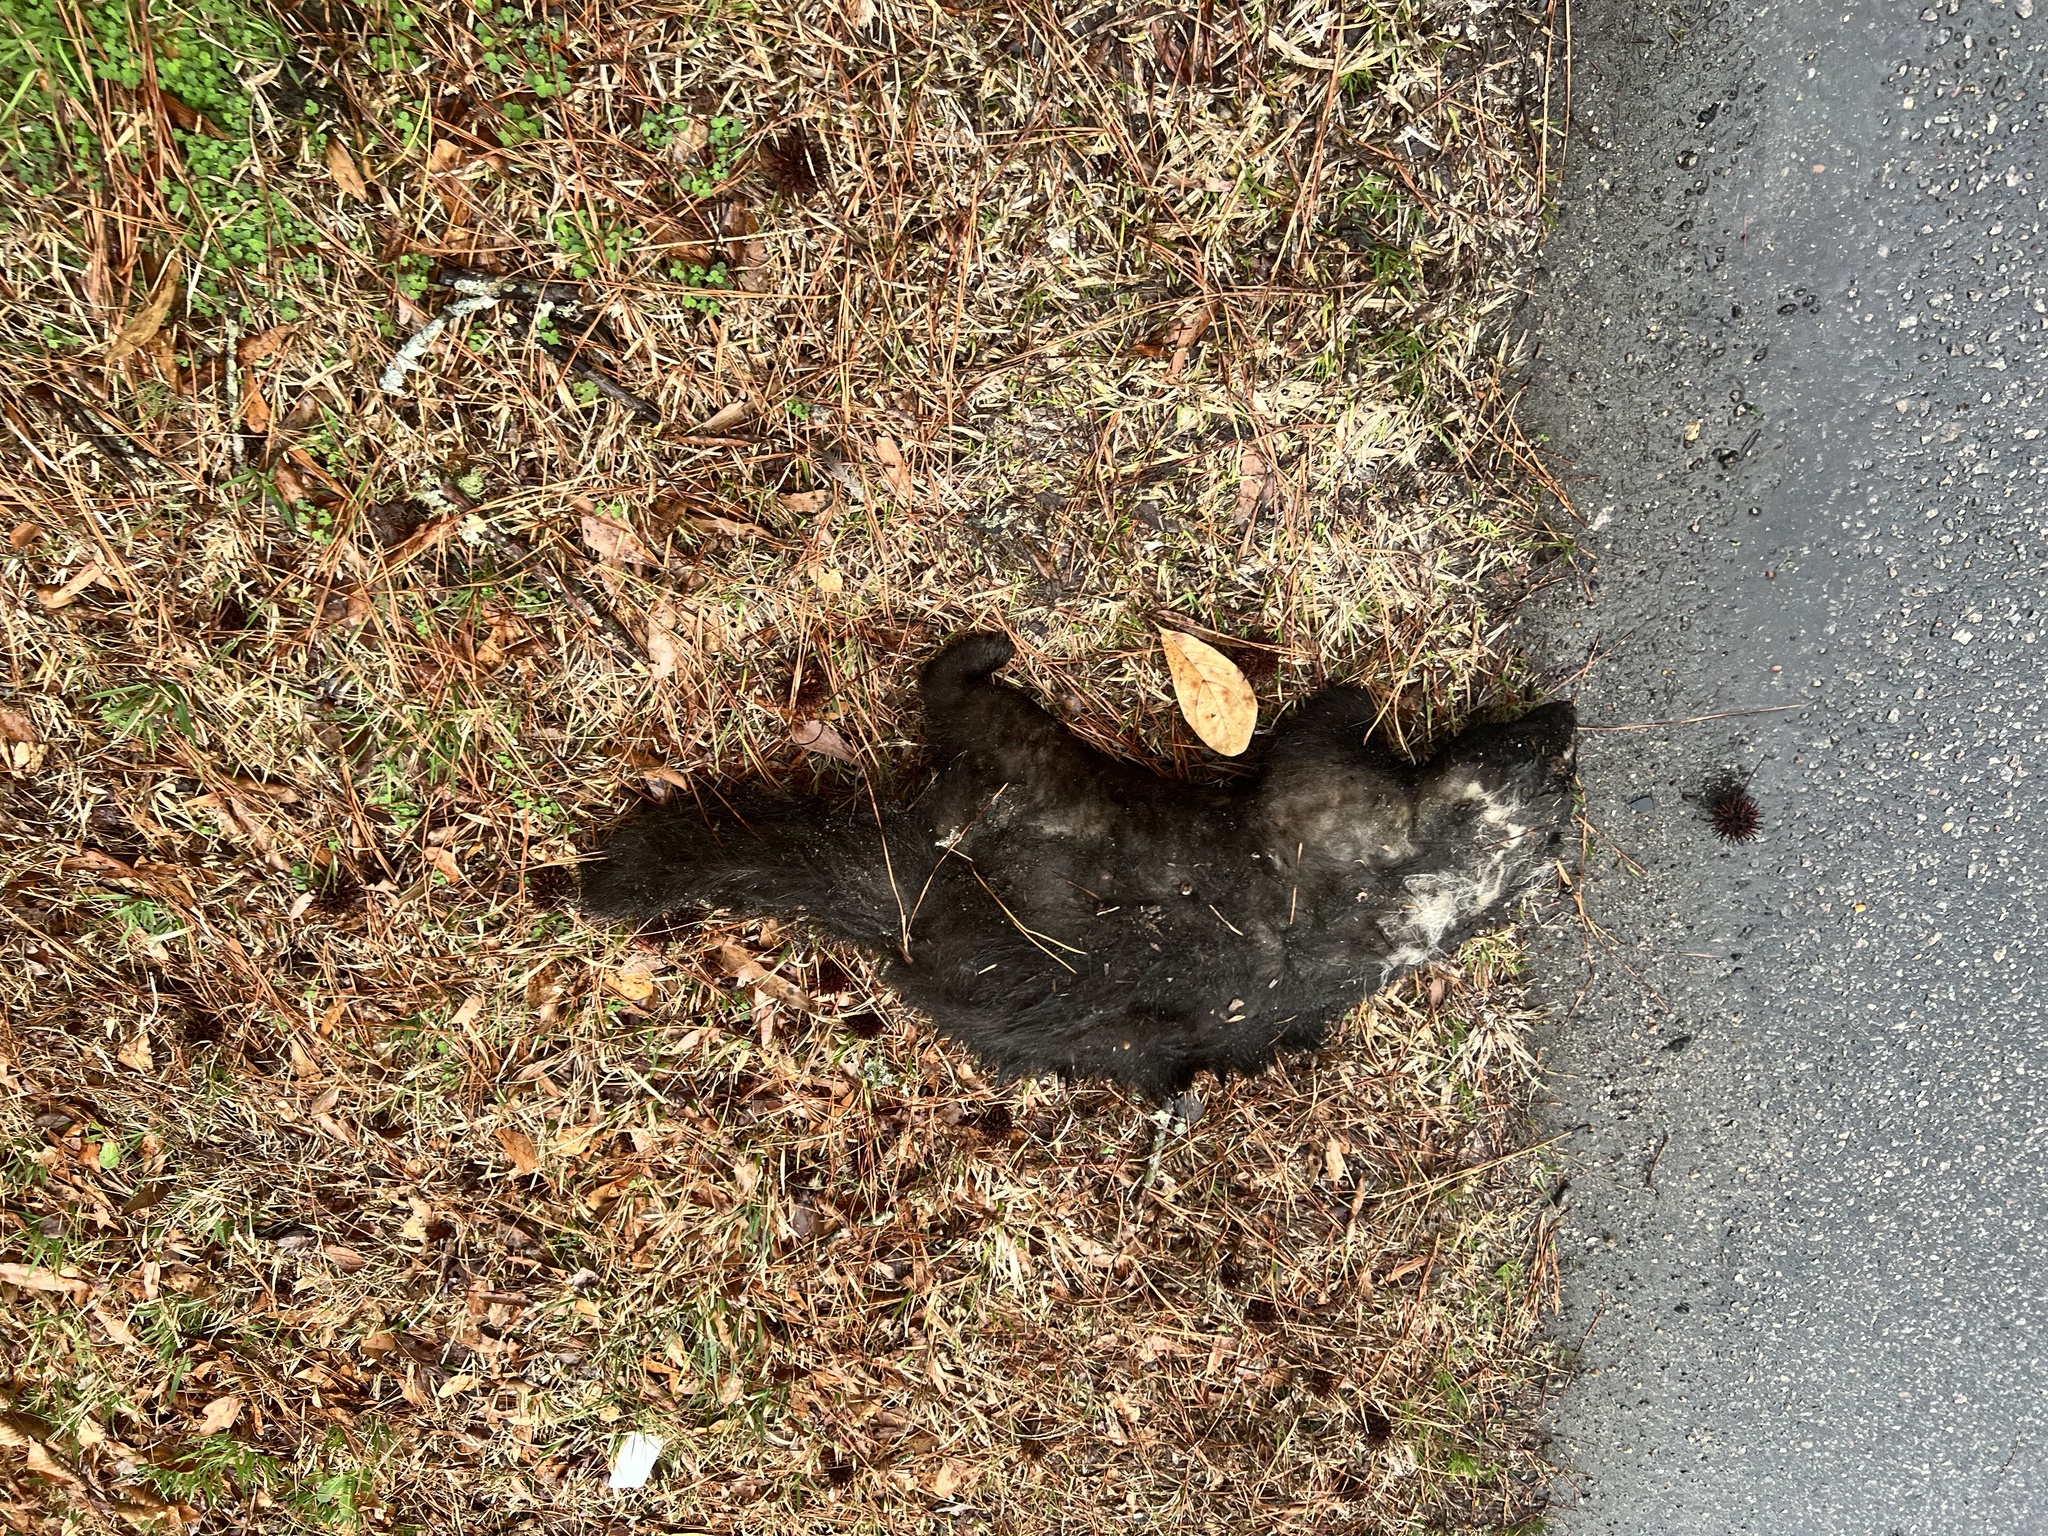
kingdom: Animalia
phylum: Chordata
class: Mammalia
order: Carnivora
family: Mephitidae
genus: Mephitis
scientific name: Mephitis mephitis
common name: Striped skunk
